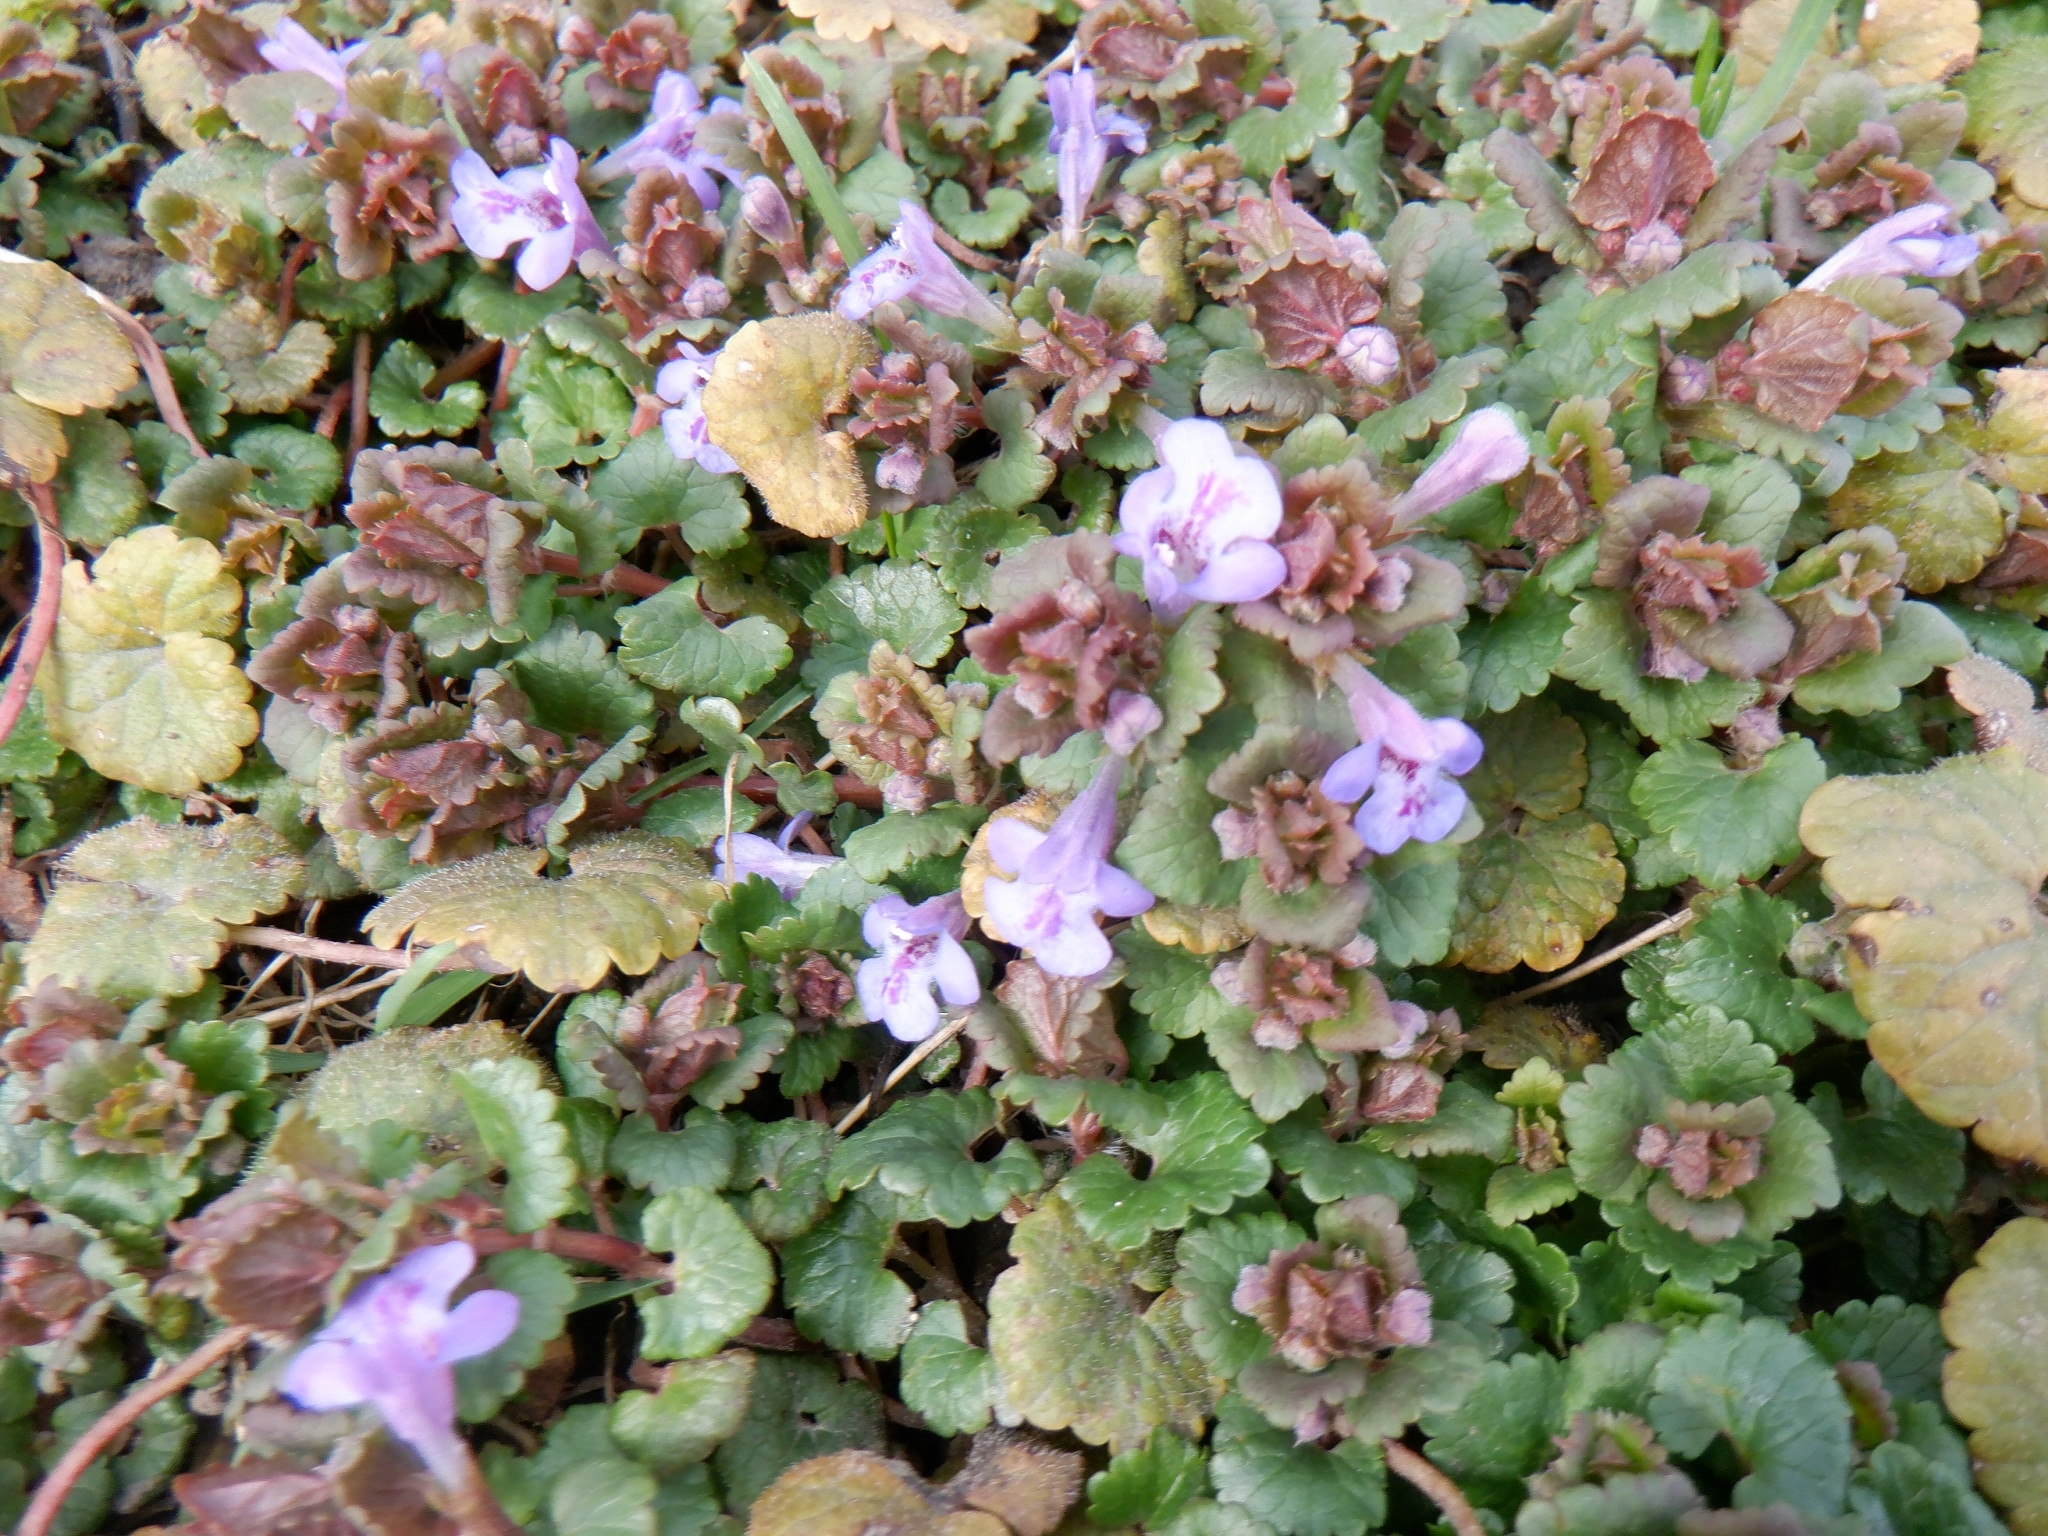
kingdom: Plantae
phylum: Tracheophyta
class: Magnoliopsida
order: Lamiales
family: Lamiaceae
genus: Glechoma
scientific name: Glechoma hederacea
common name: Ground ivy
